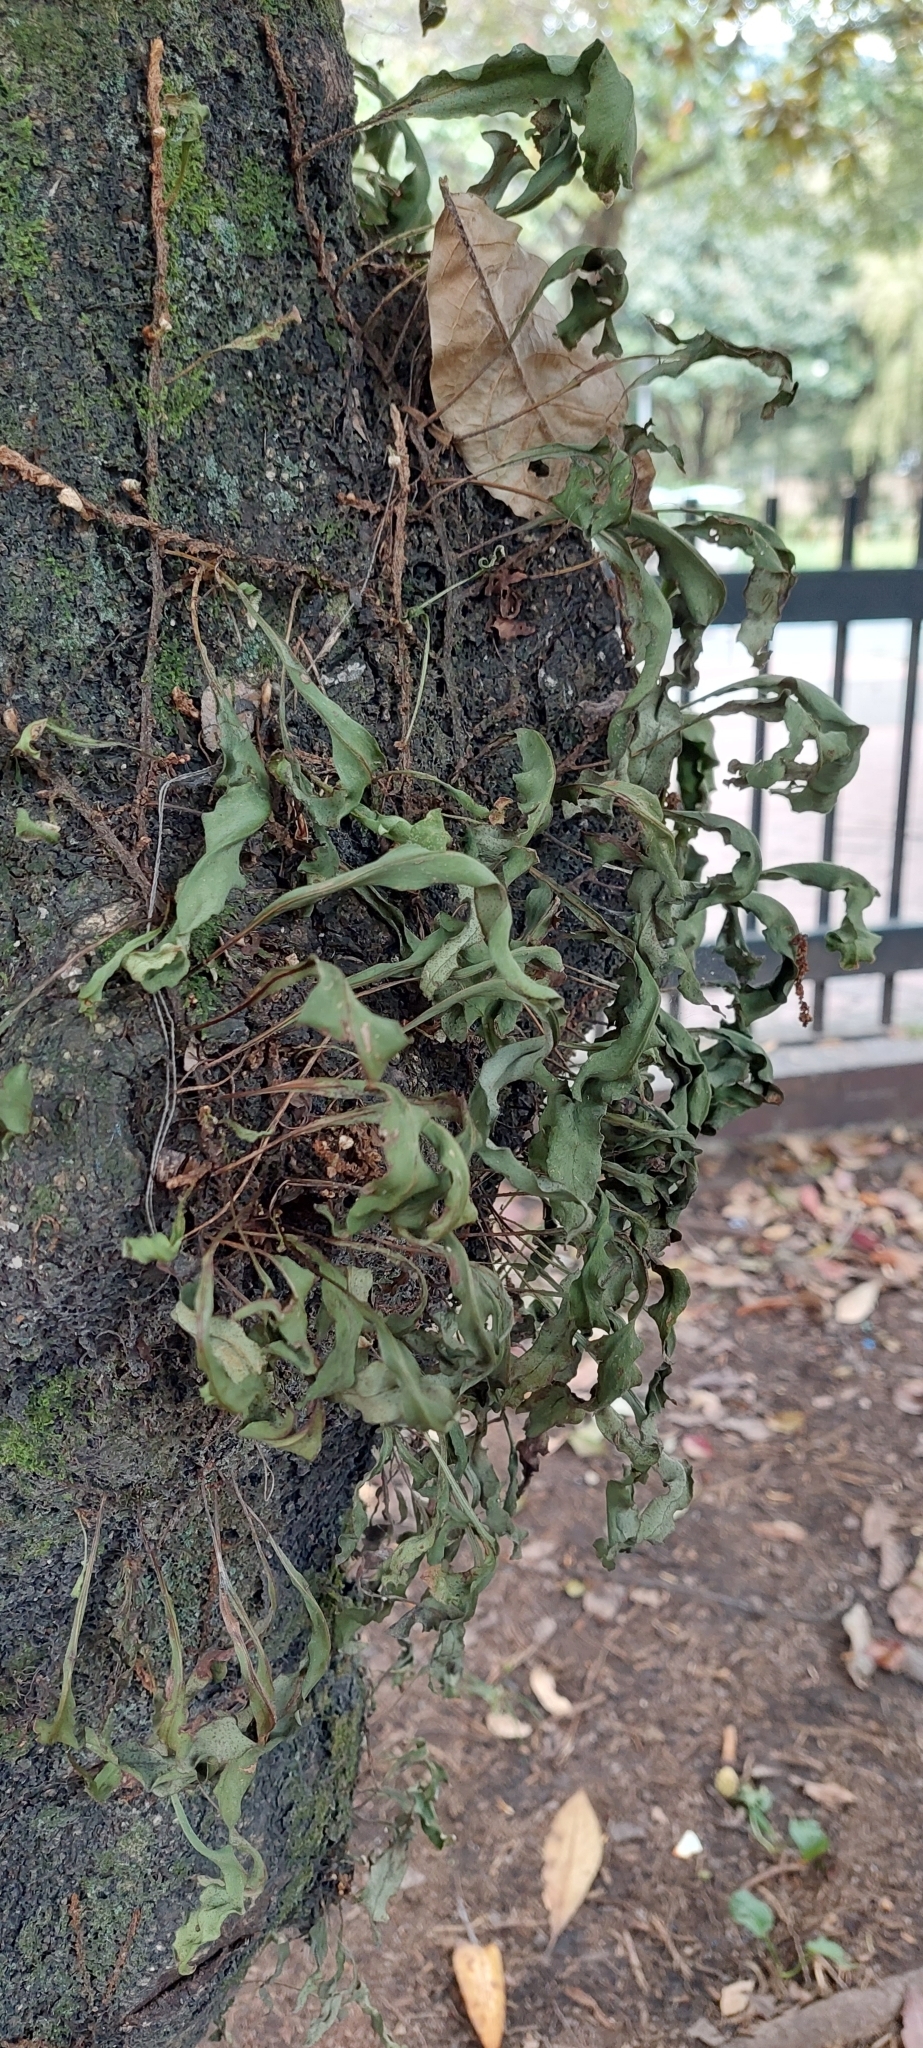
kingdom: Plantae
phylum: Tracheophyta
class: Polypodiopsida
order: Polypodiales
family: Polypodiaceae
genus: Pleopeltis
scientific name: Pleopeltis macrocarpa
